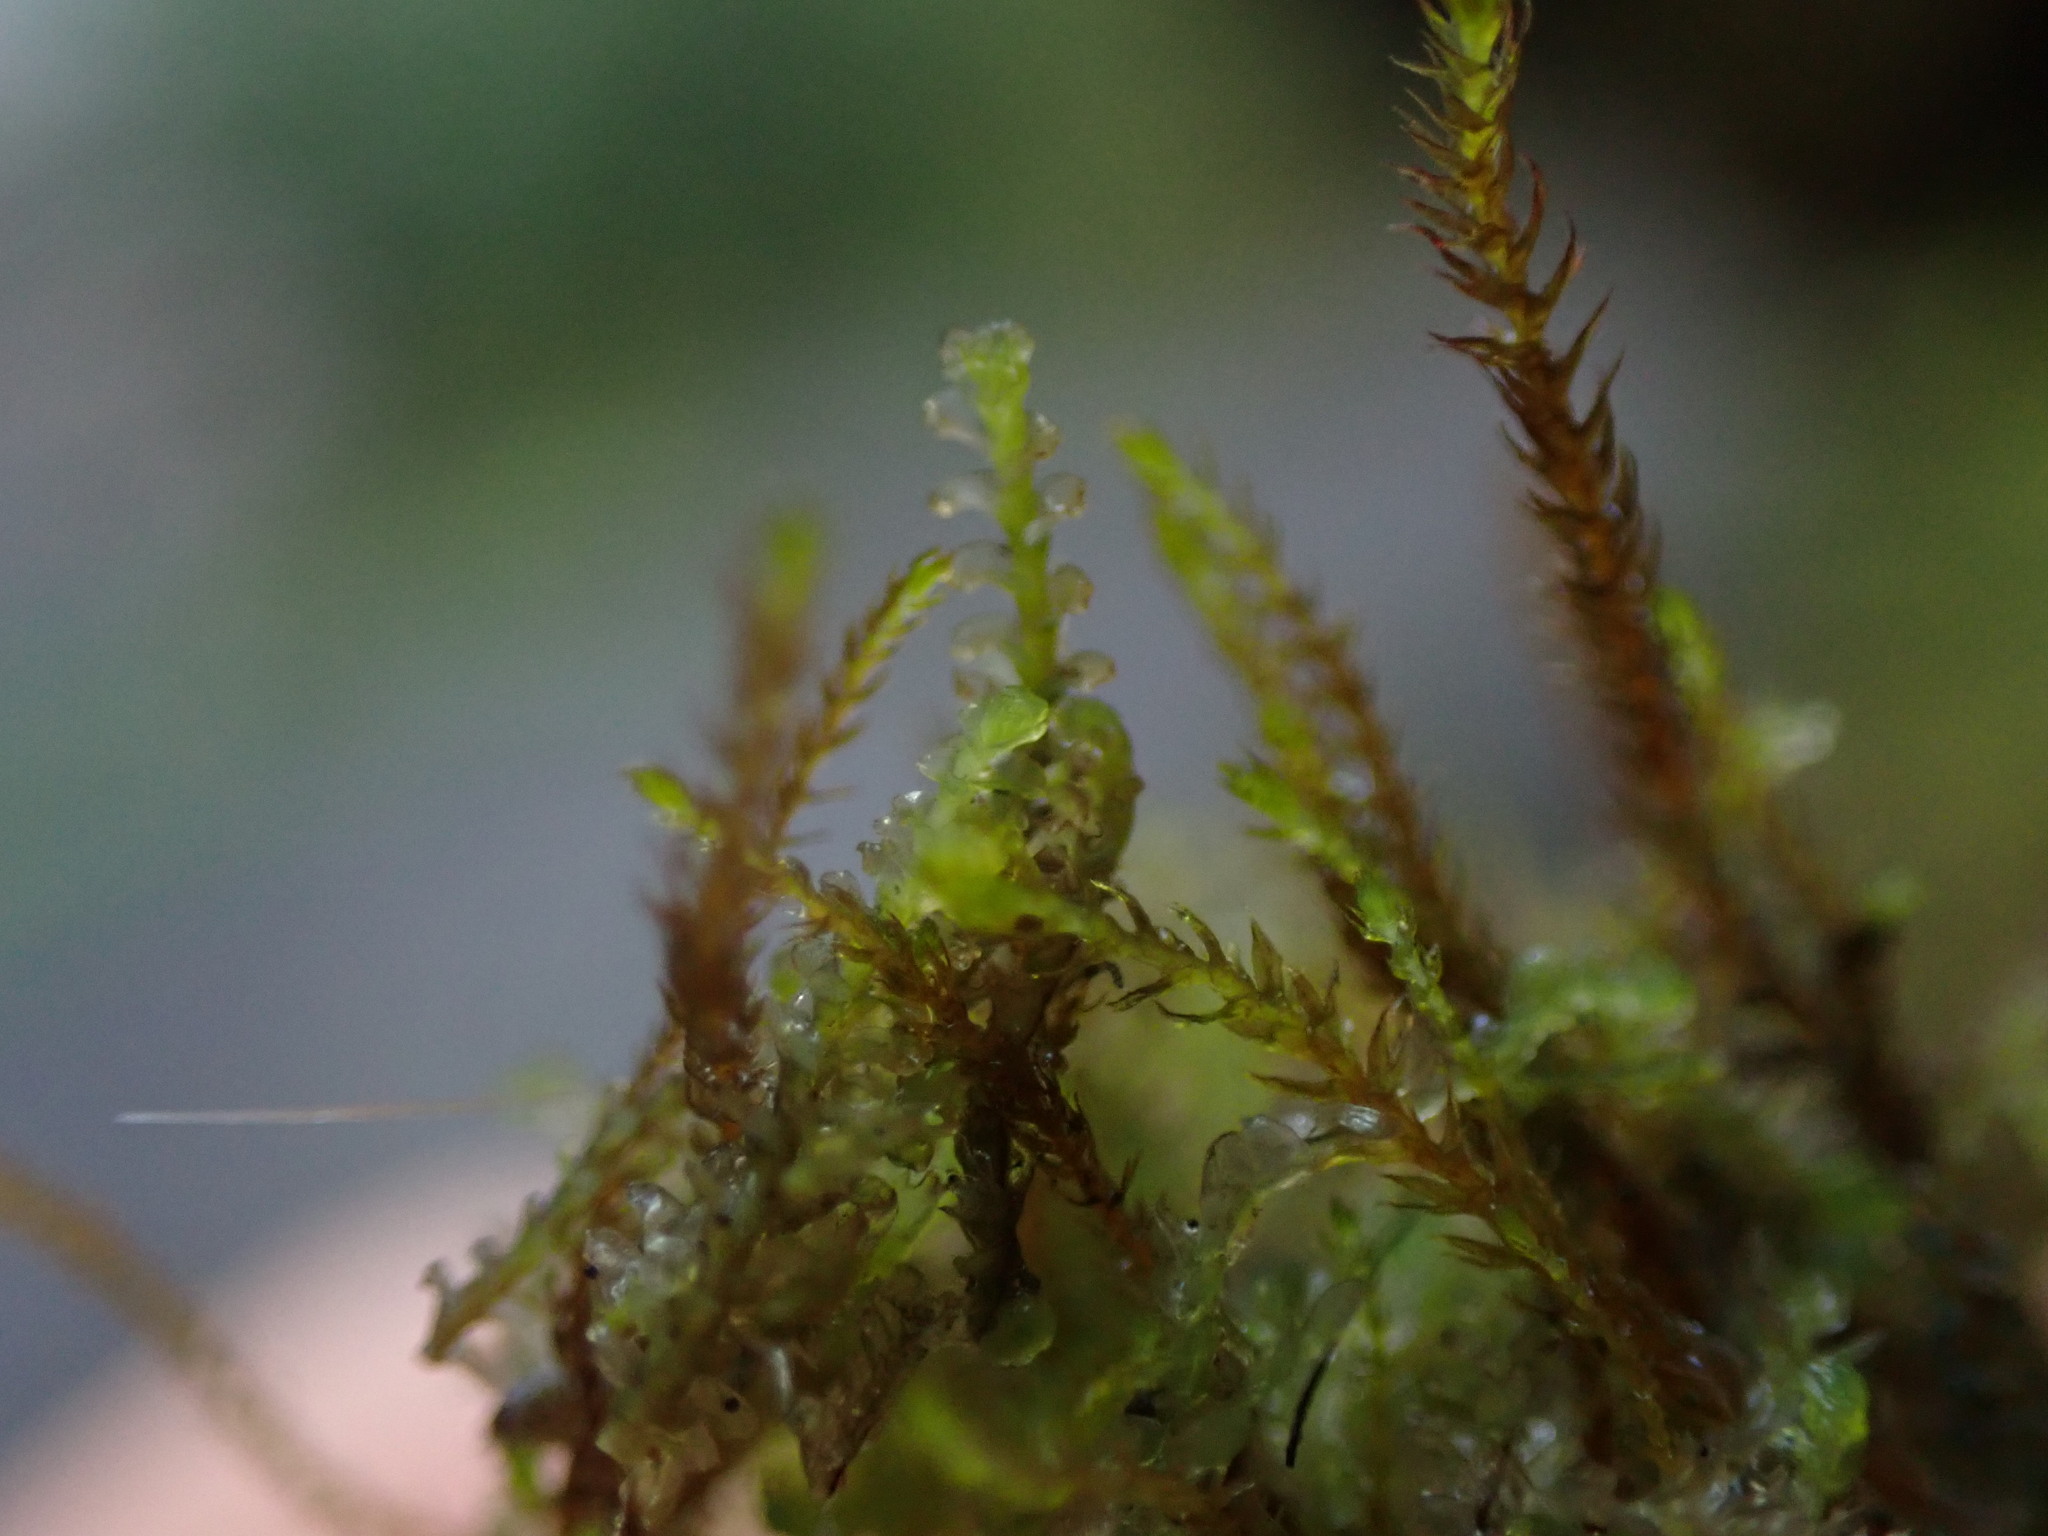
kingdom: Plantae
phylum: Marchantiophyta
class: Jungermanniopsida
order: Jungermanniales
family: Cephaloziaceae
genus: Odontoschisma
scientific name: Odontoschisma denudatum
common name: Matchstick flapwort
